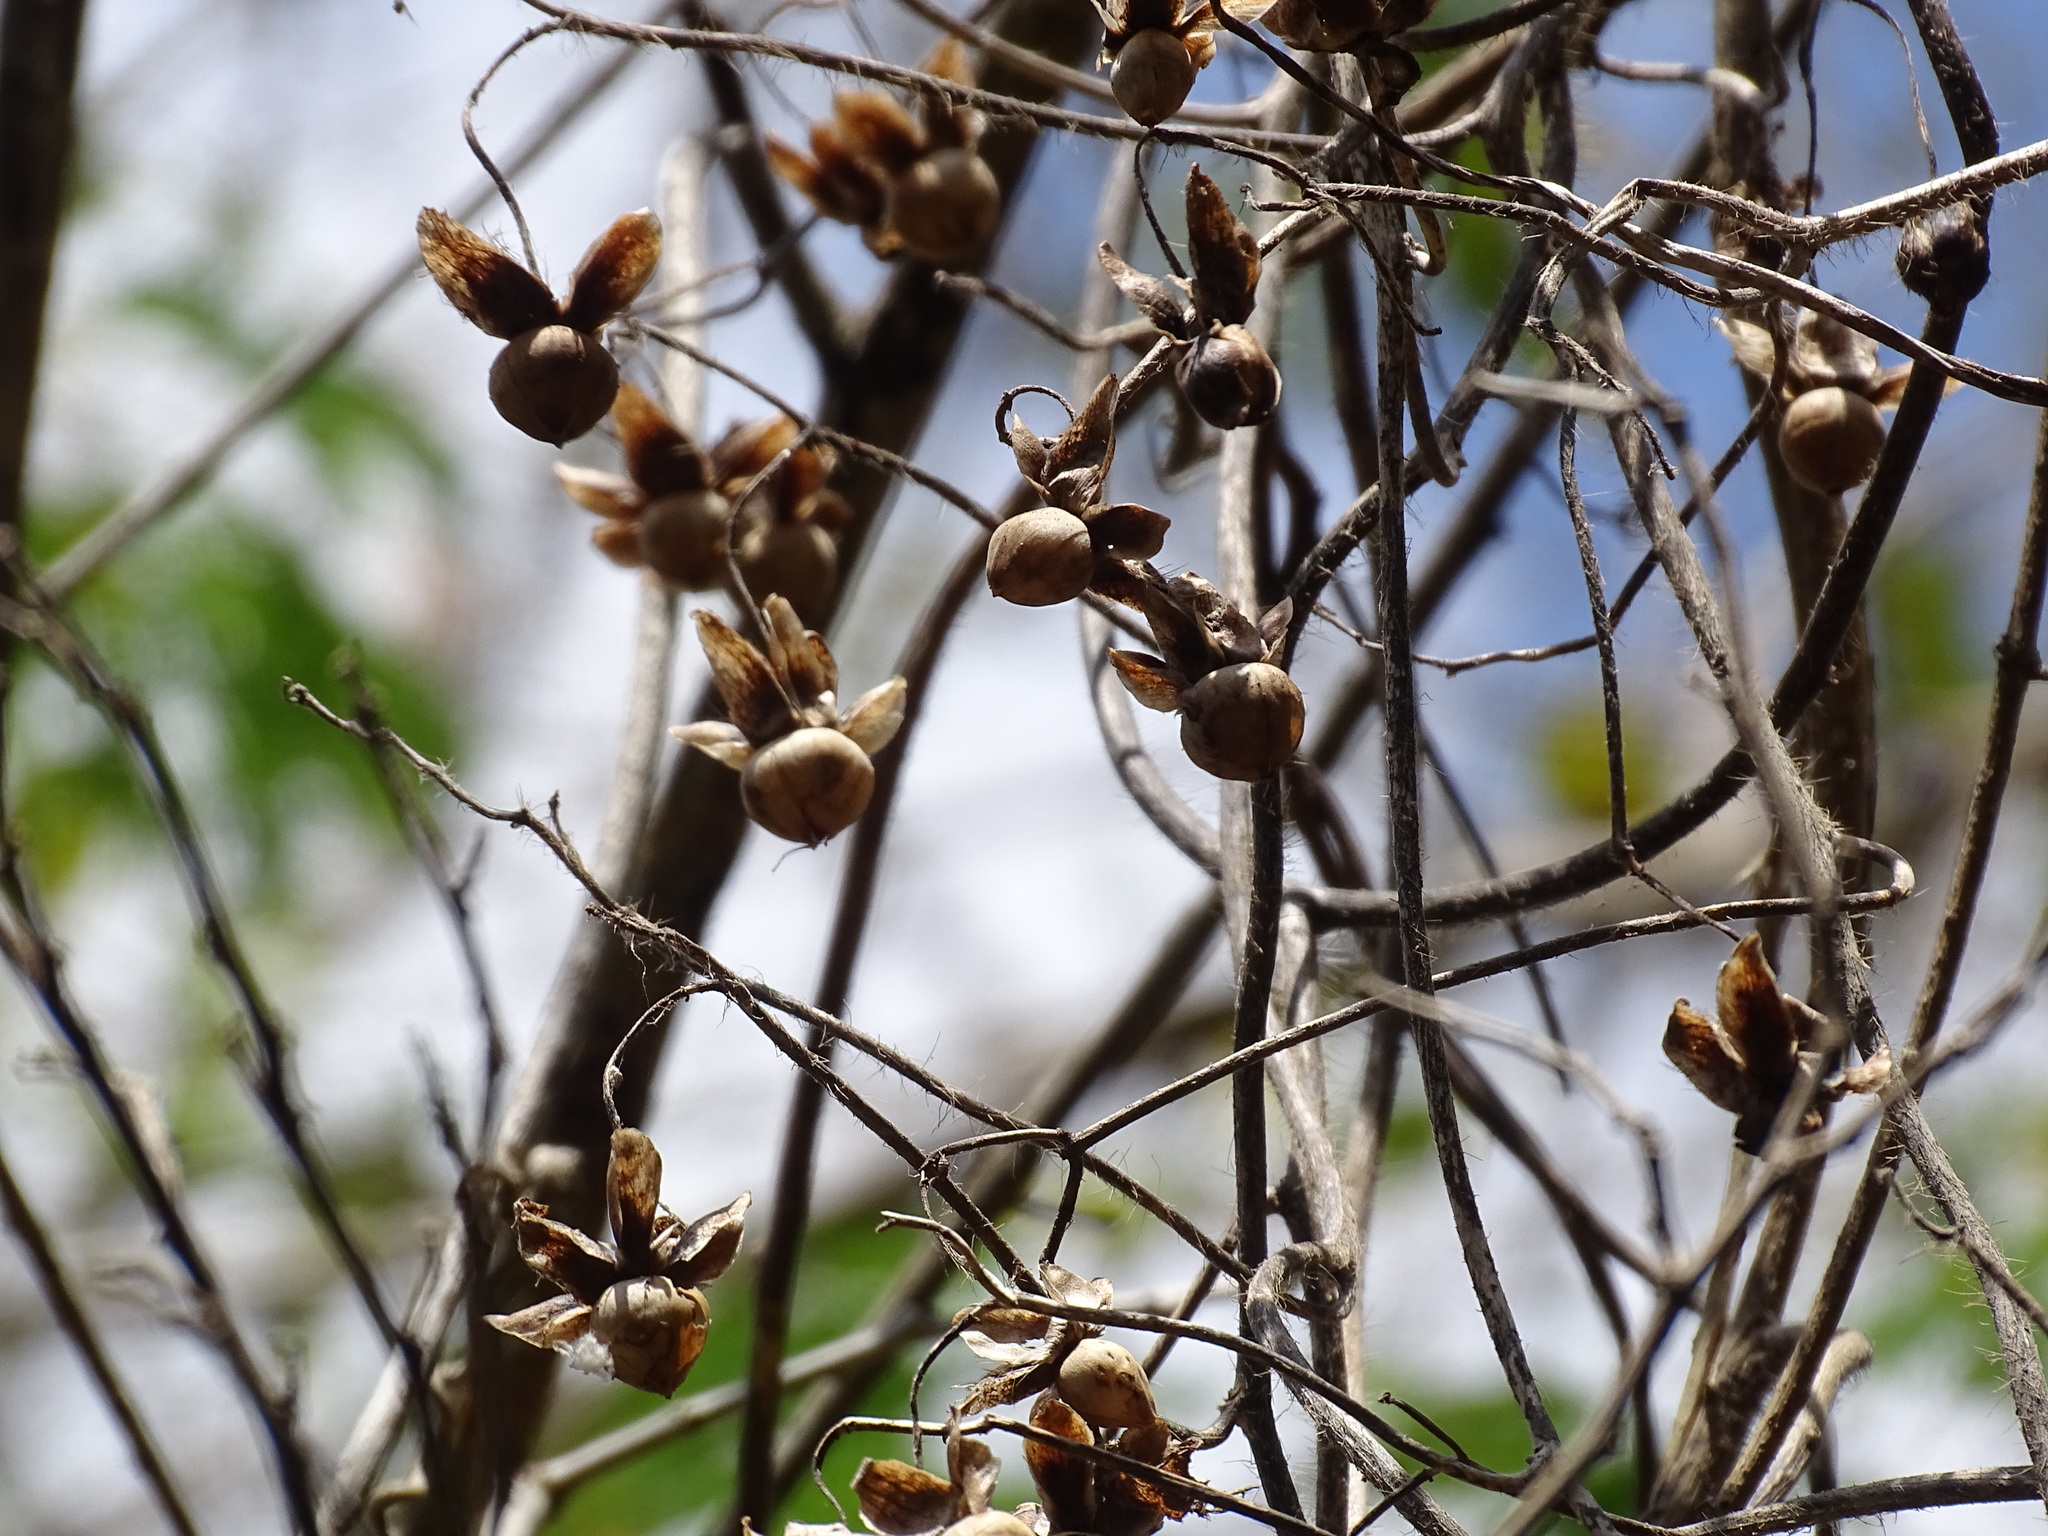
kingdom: Plantae
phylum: Tracheophyta
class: Magnoliopsida
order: Solanales
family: Convolvulaceae
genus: Distimake
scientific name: Distimake aegyptius
